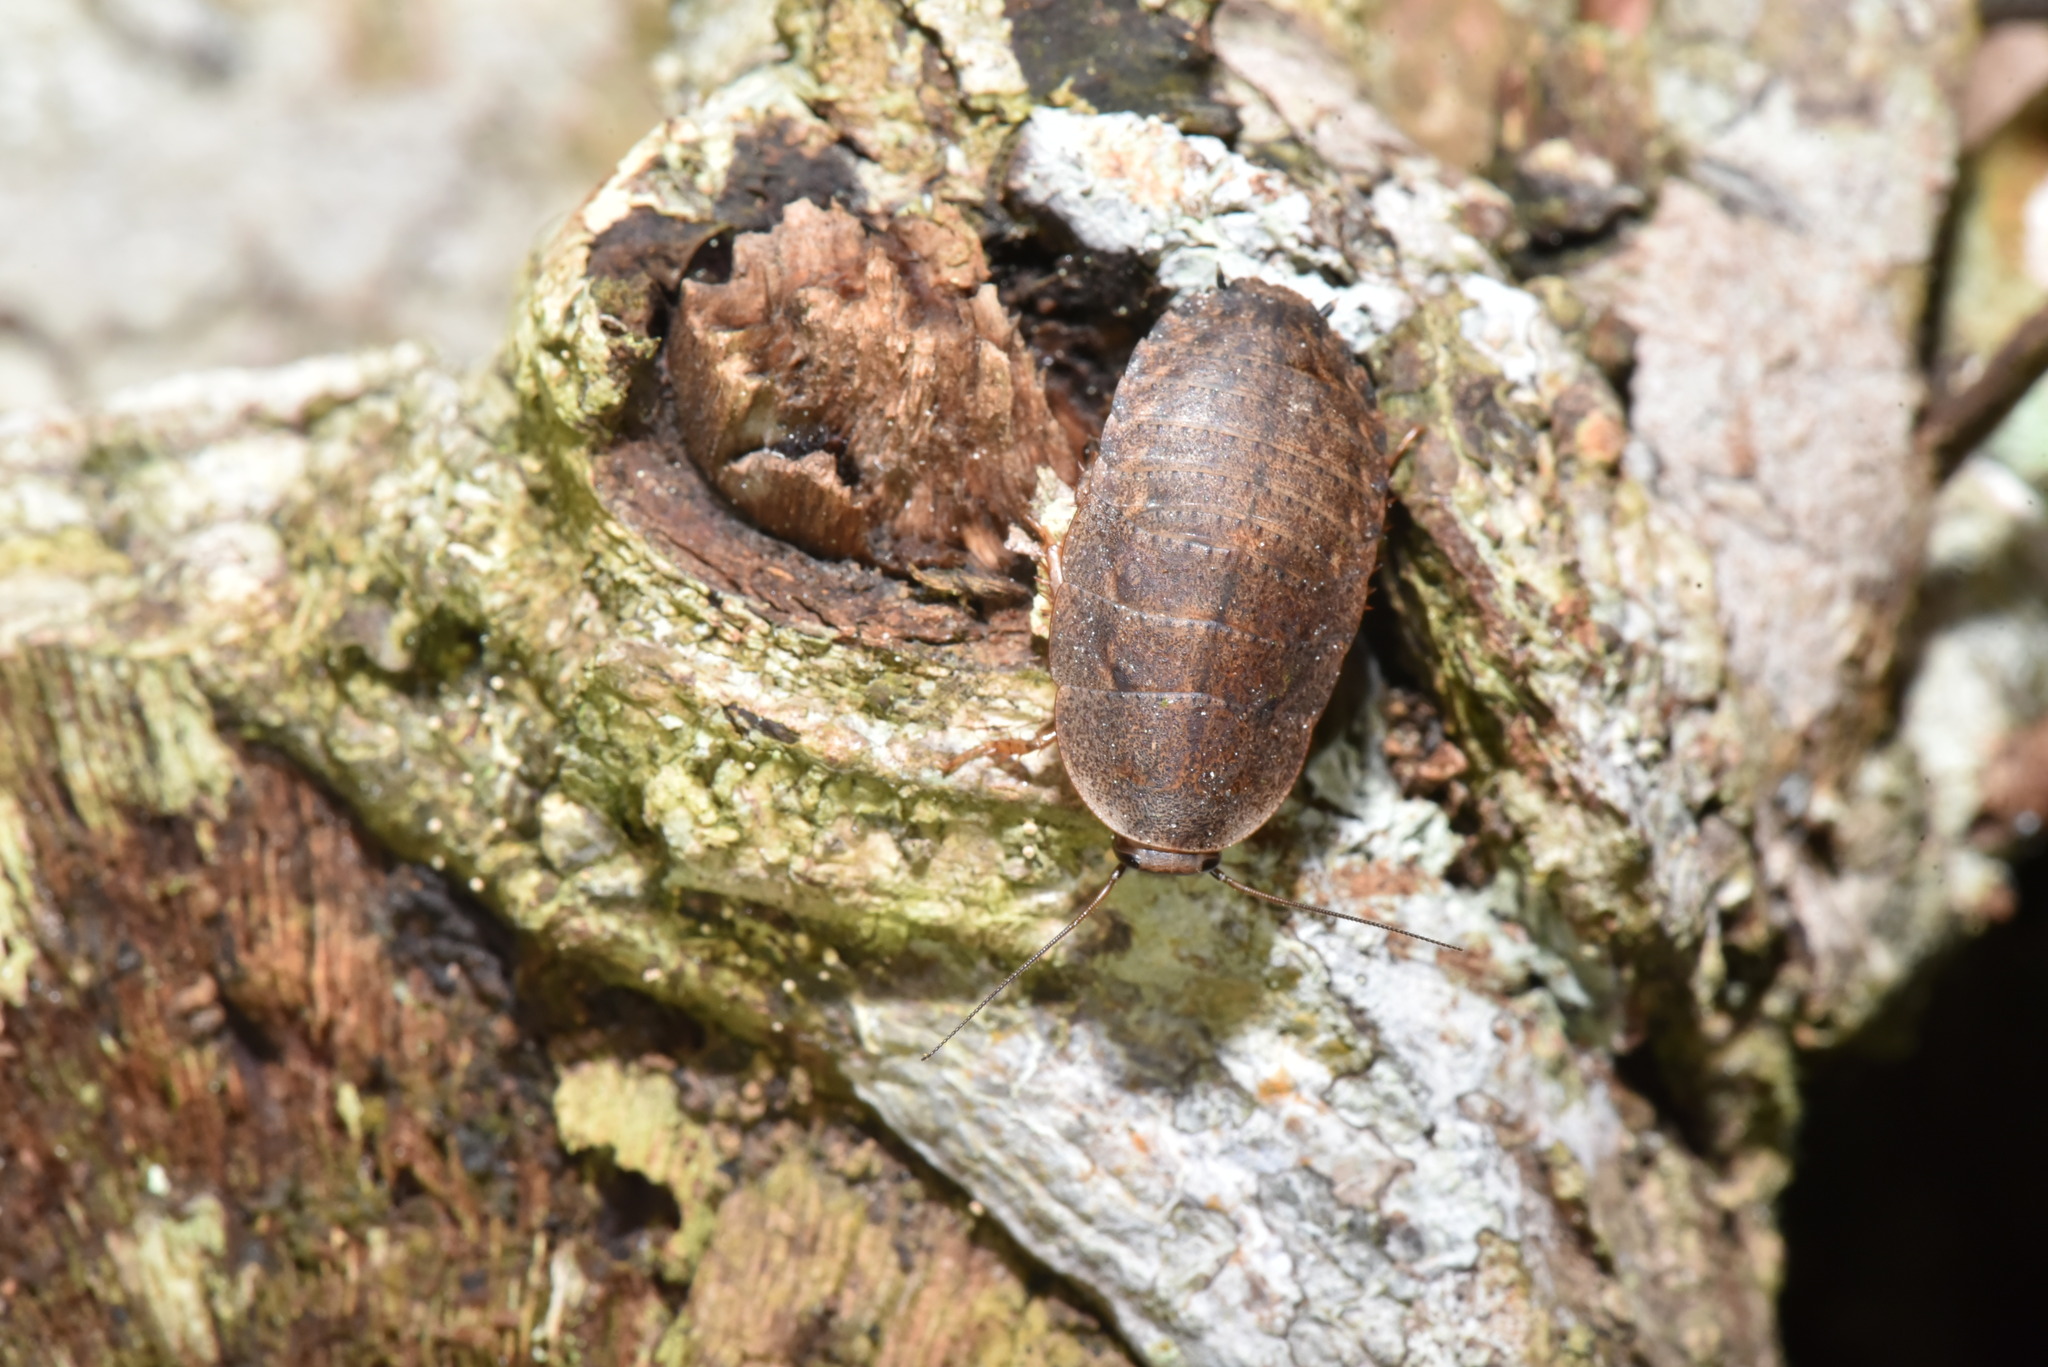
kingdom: Animalia
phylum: Arthropoda
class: Insecta
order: Blattodea
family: Blaberidae
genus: Opisthoplatia
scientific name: Opisthoplatia orientalis
